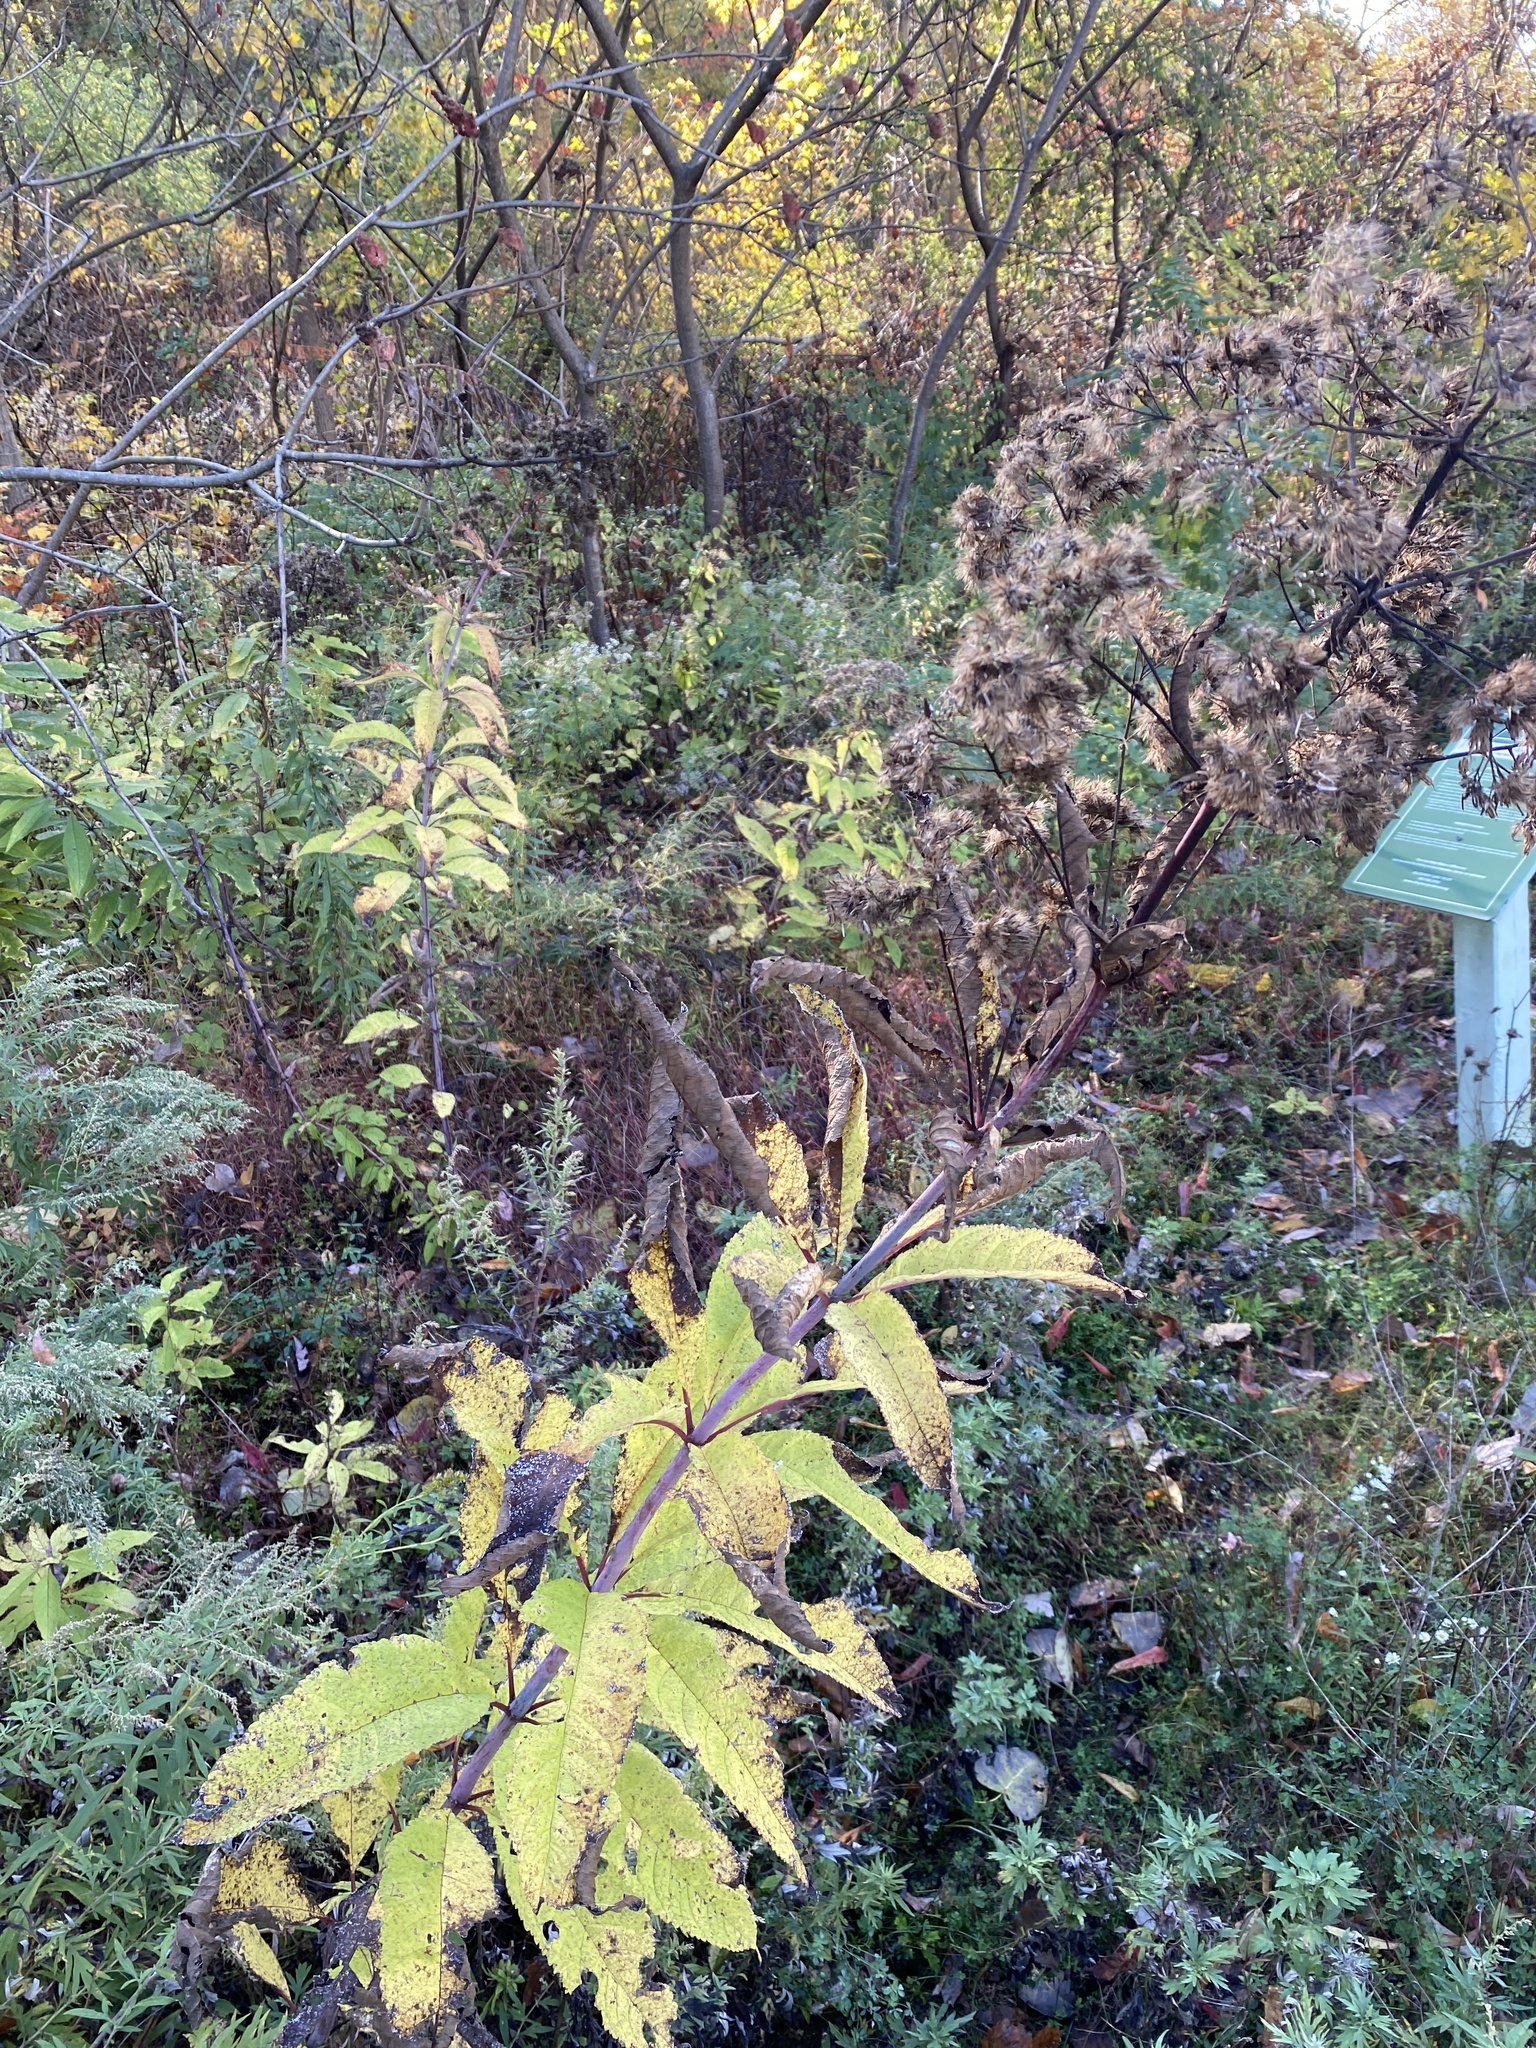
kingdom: Plantae
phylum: Tracheophyta
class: Magnoliopsida
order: Asterales
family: Asteraceae
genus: Eutrochium
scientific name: Eutrochium fistulosum
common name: Trumpetweed
